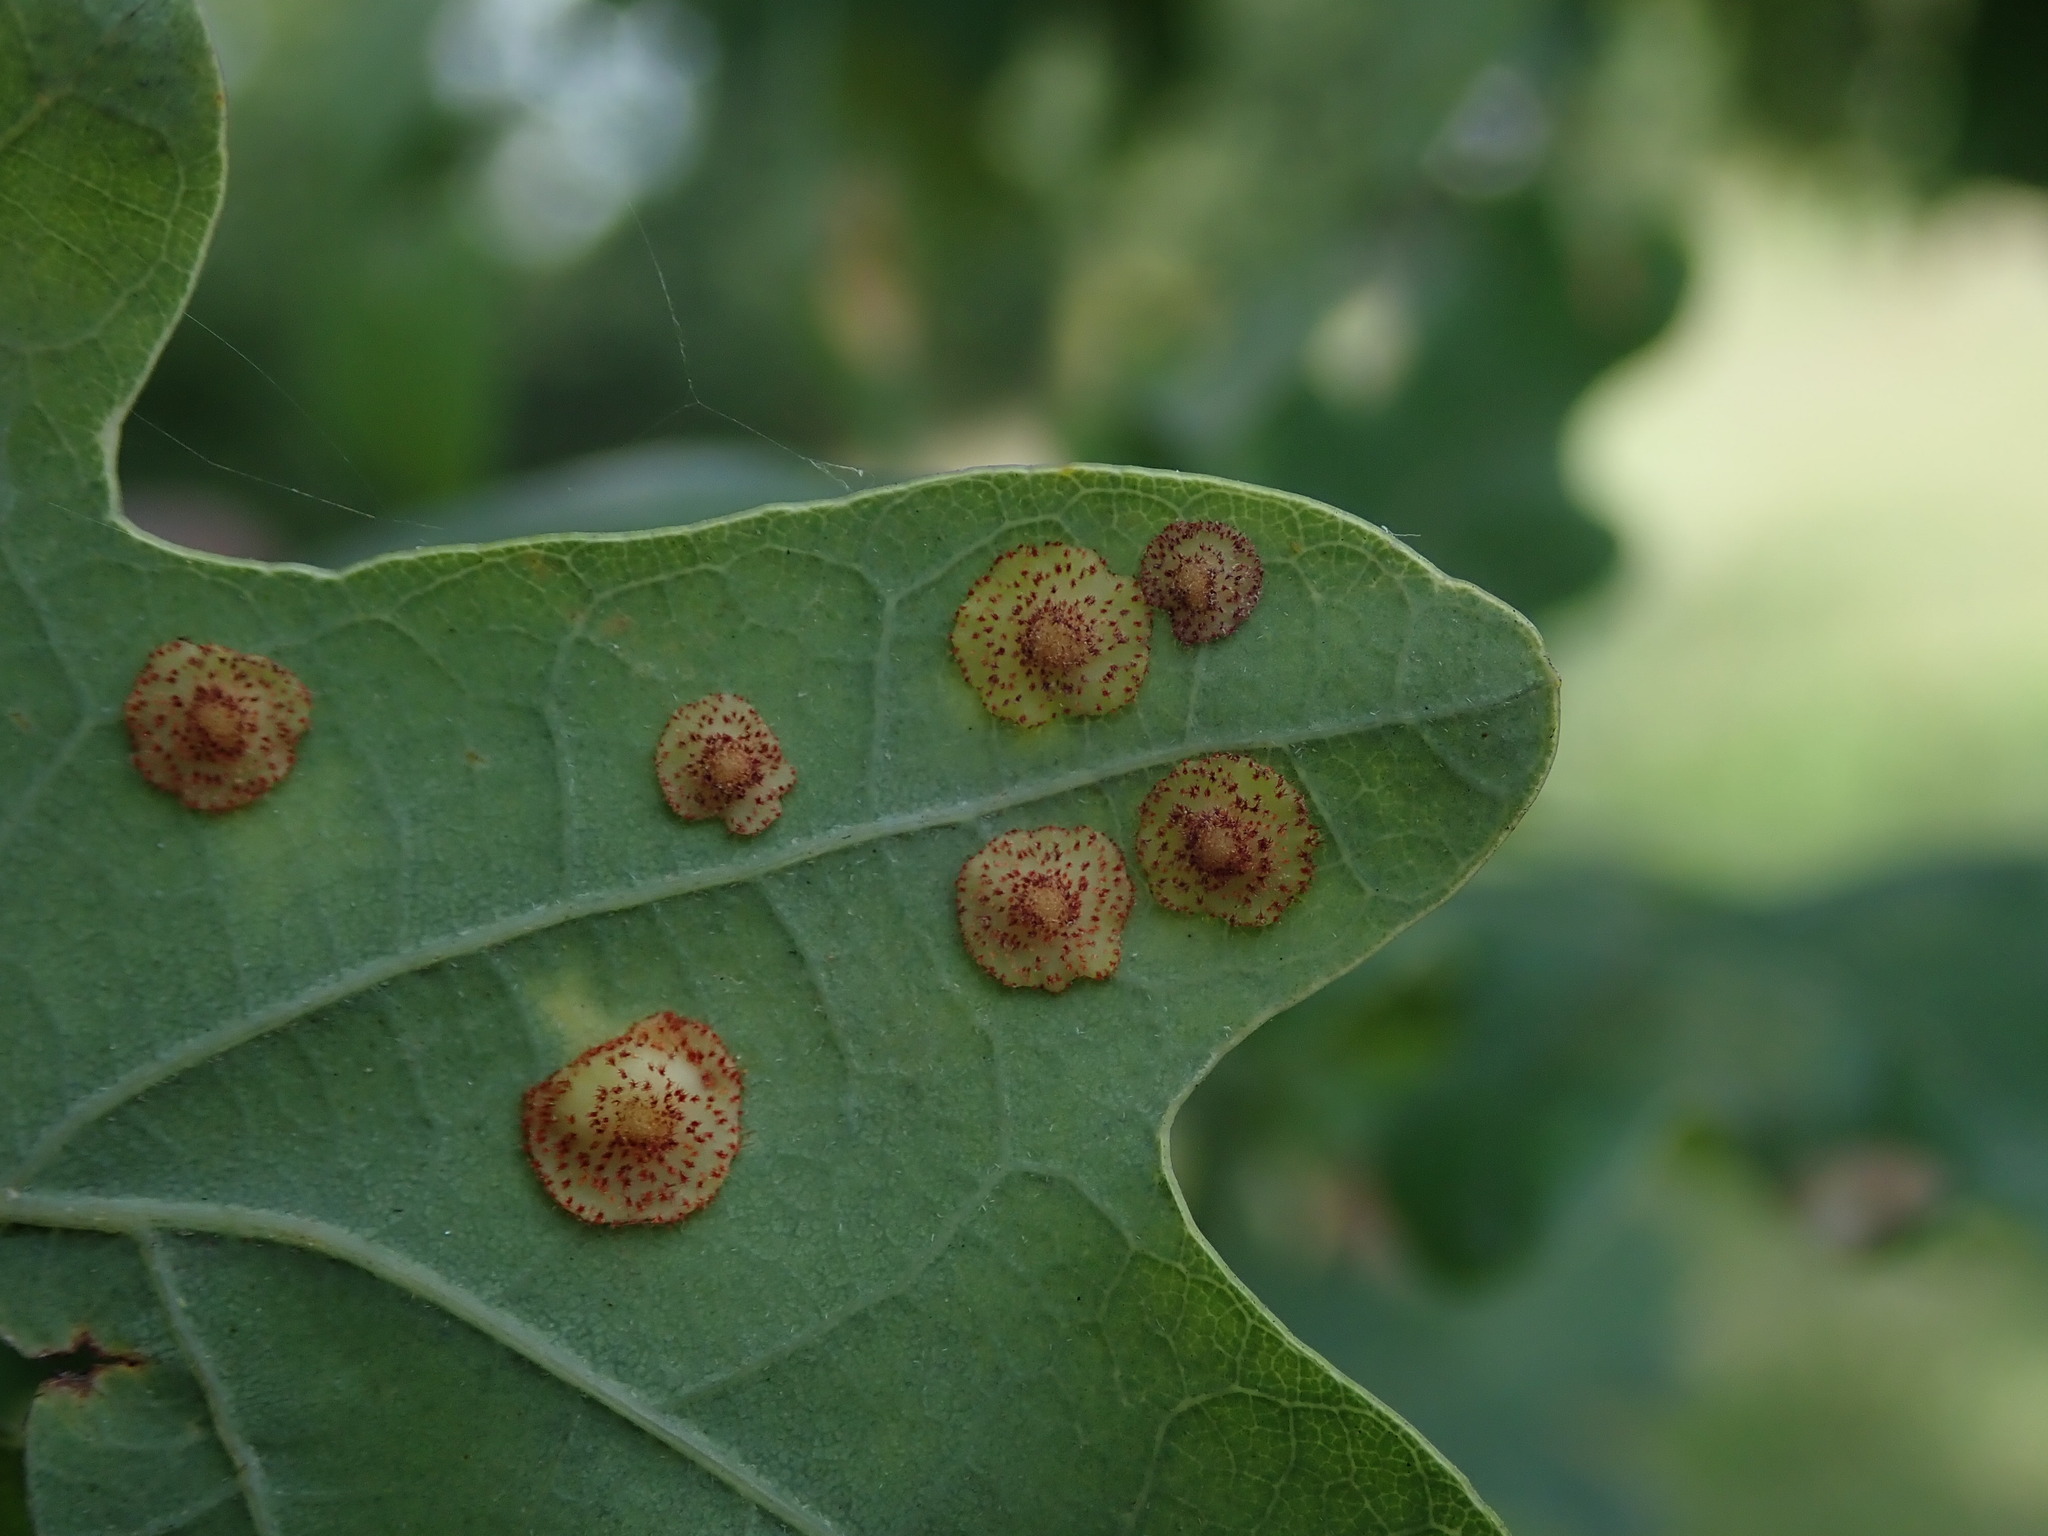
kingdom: Animalia
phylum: Arthropoda
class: Insecta
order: Hymenoptera
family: Cynipidae
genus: Neuroterus
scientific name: Neuroterus quercusbaccarum
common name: Common spangle gall
